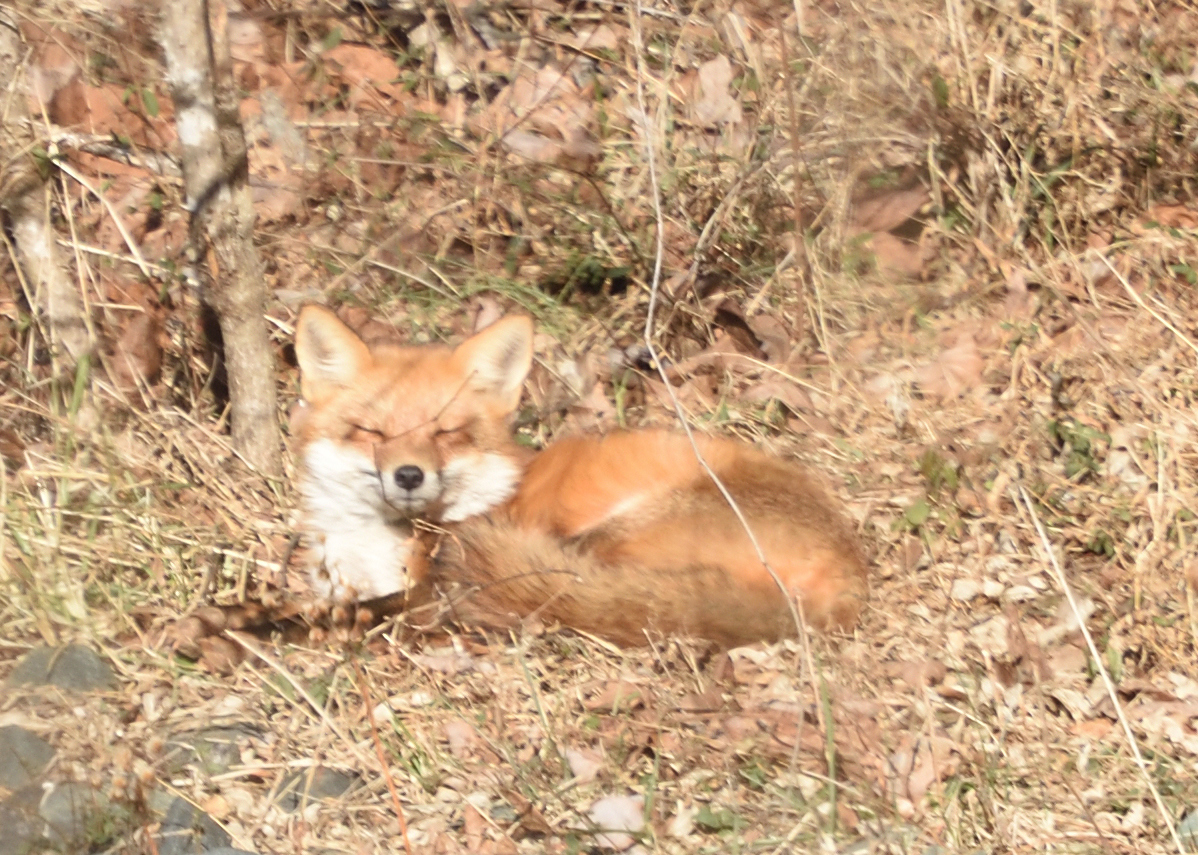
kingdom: Animalia
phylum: Chordata
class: Mammalia
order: Carnivora
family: Canidae
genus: Vulpes
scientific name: Vulpes vulpes
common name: Red fox
